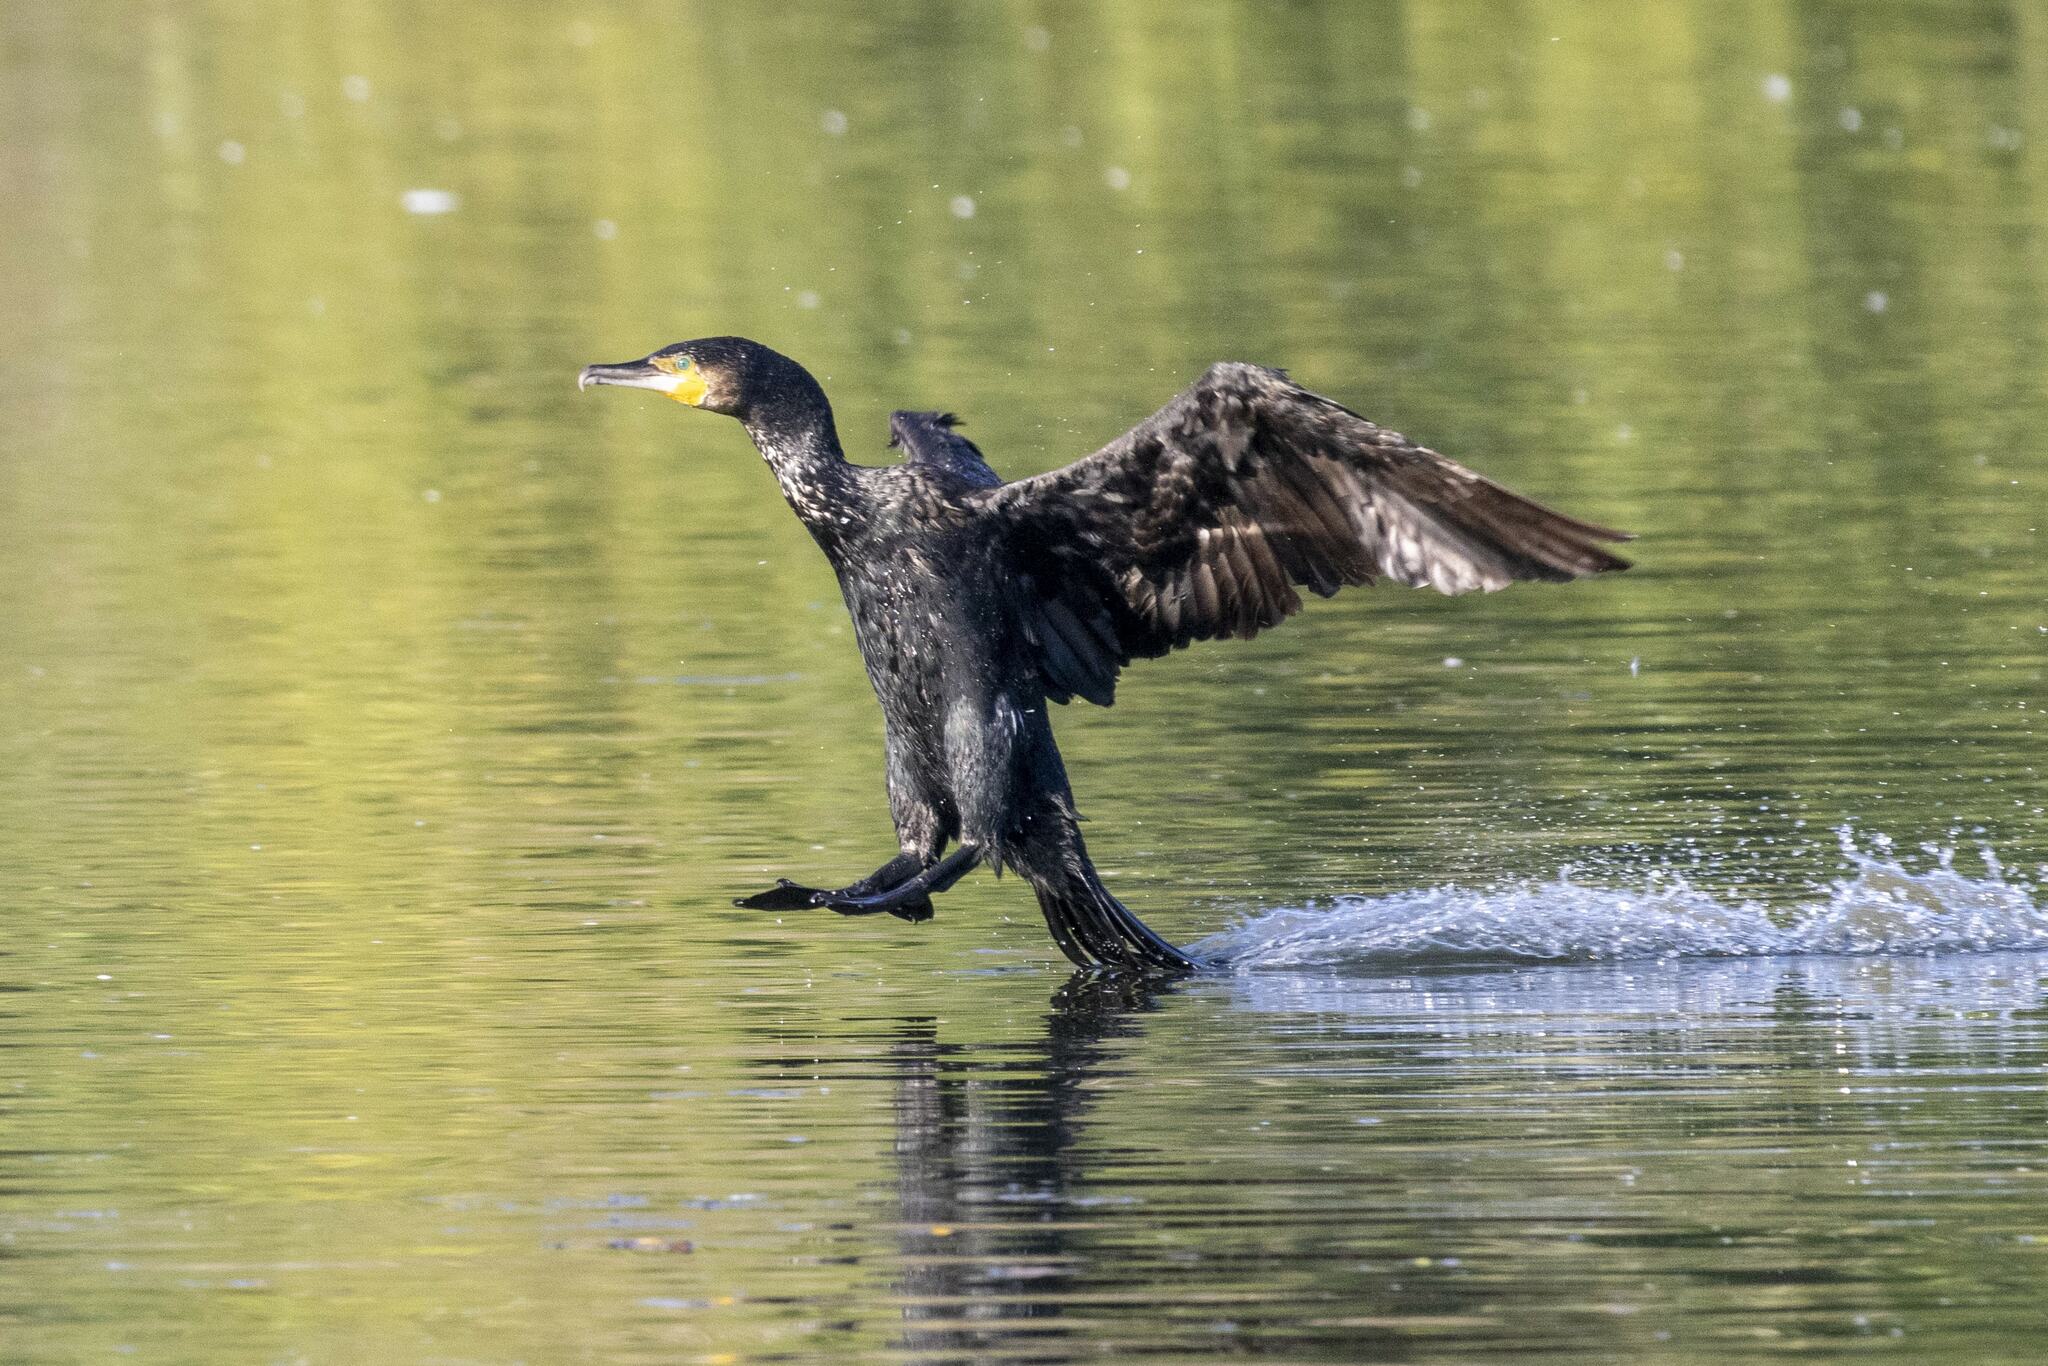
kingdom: Animalia
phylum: Chordata
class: Aves
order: Suliformes
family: Phalacrocoracidae
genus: Phalacrocorax
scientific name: Phalacrocorax carbo
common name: Great cormorant
